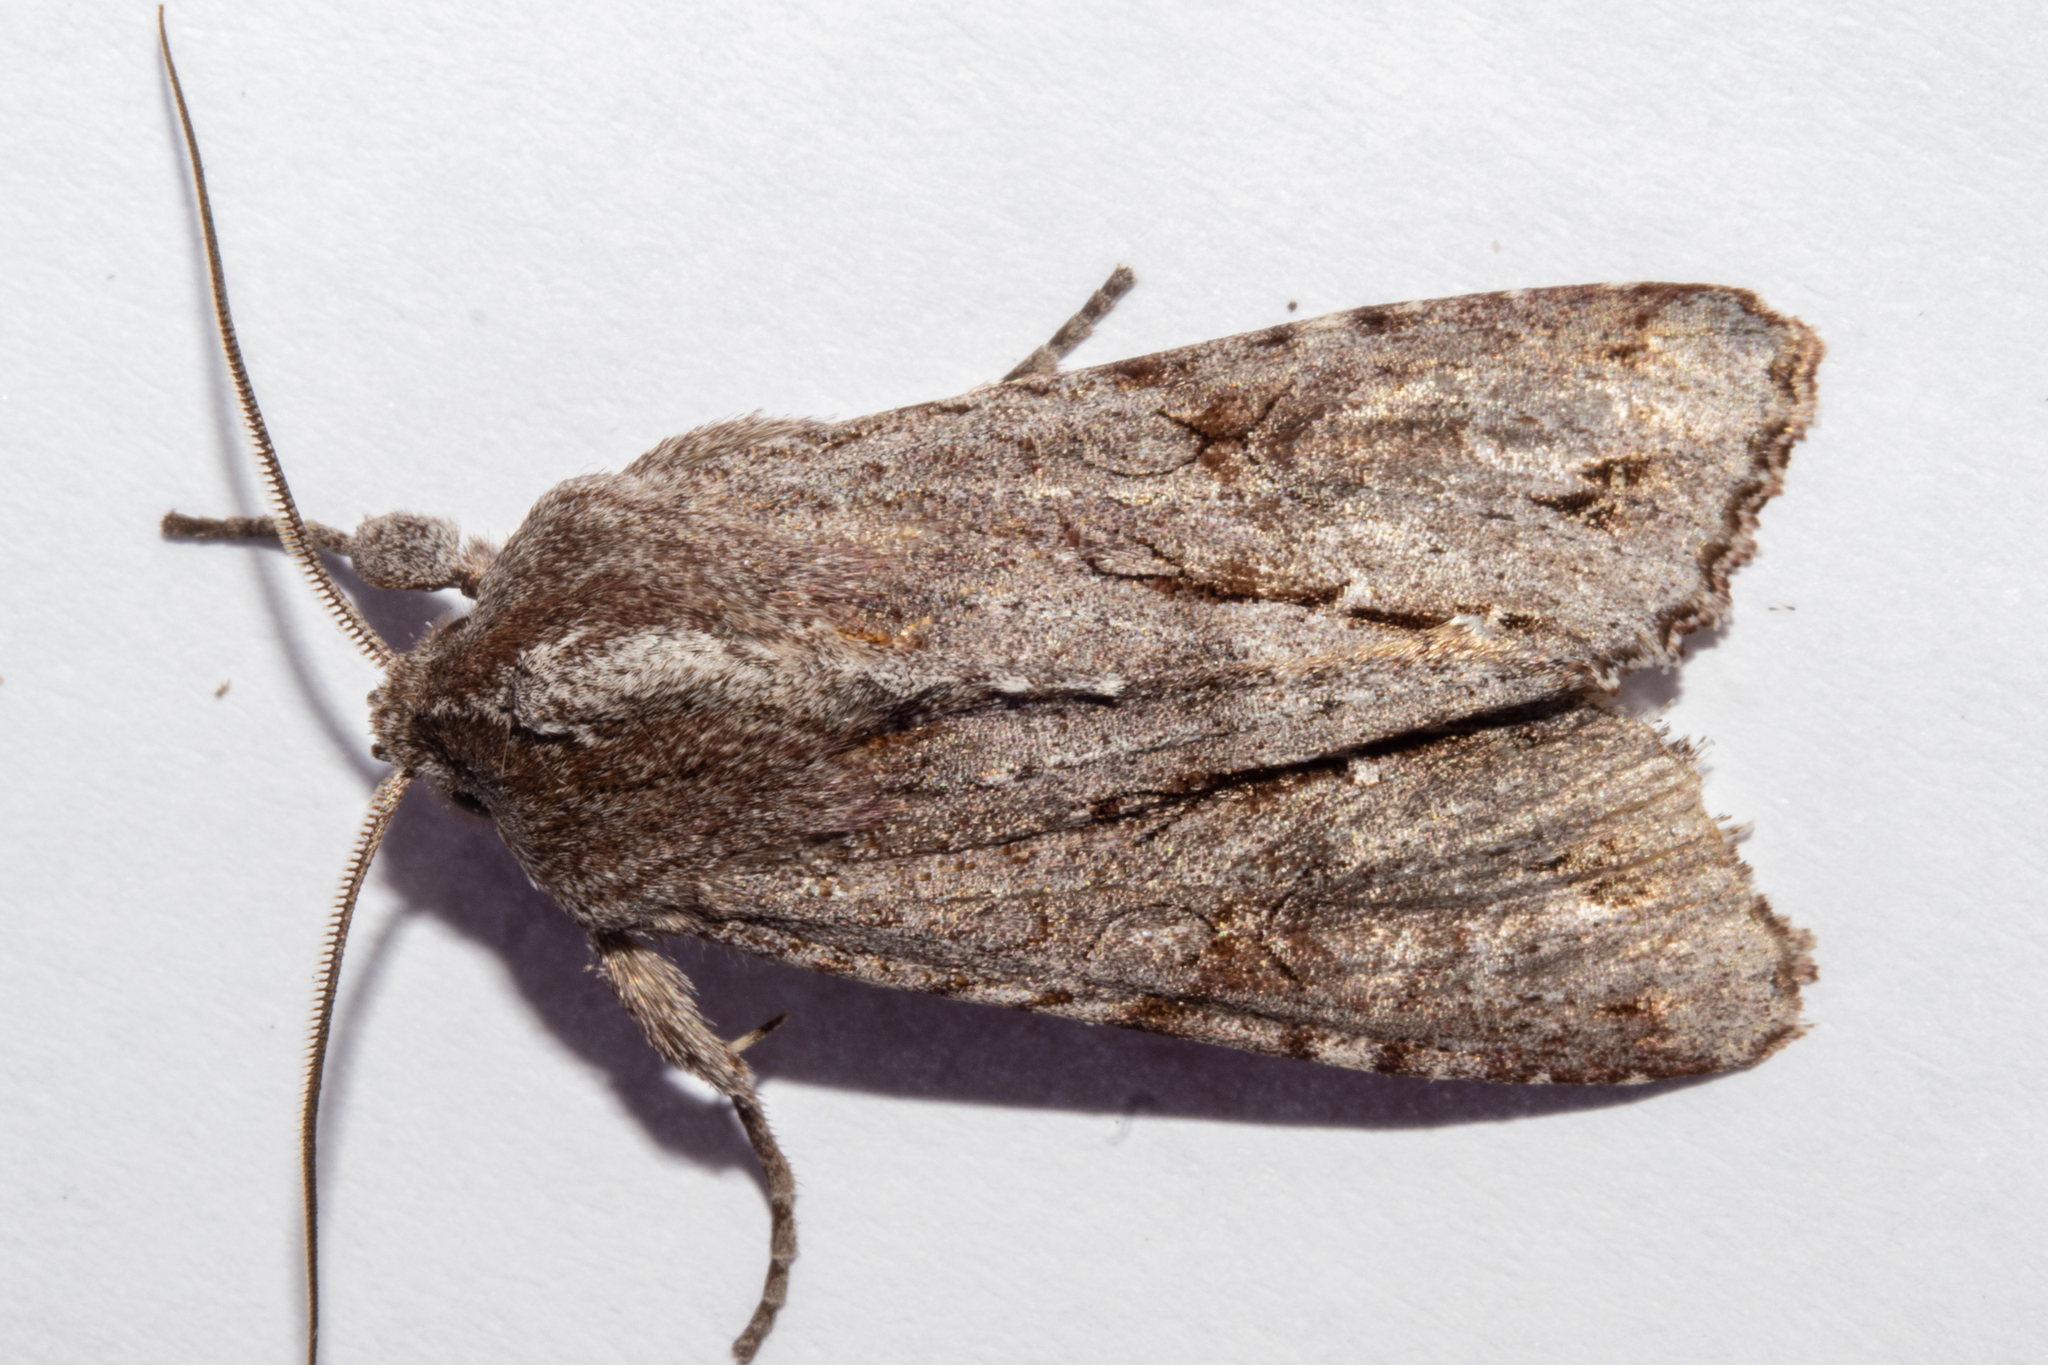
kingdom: Animalia
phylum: Arthropoda
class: Insecta
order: Lepidoptera
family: Noctuidae
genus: Ichneutica
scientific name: Ichneutica
